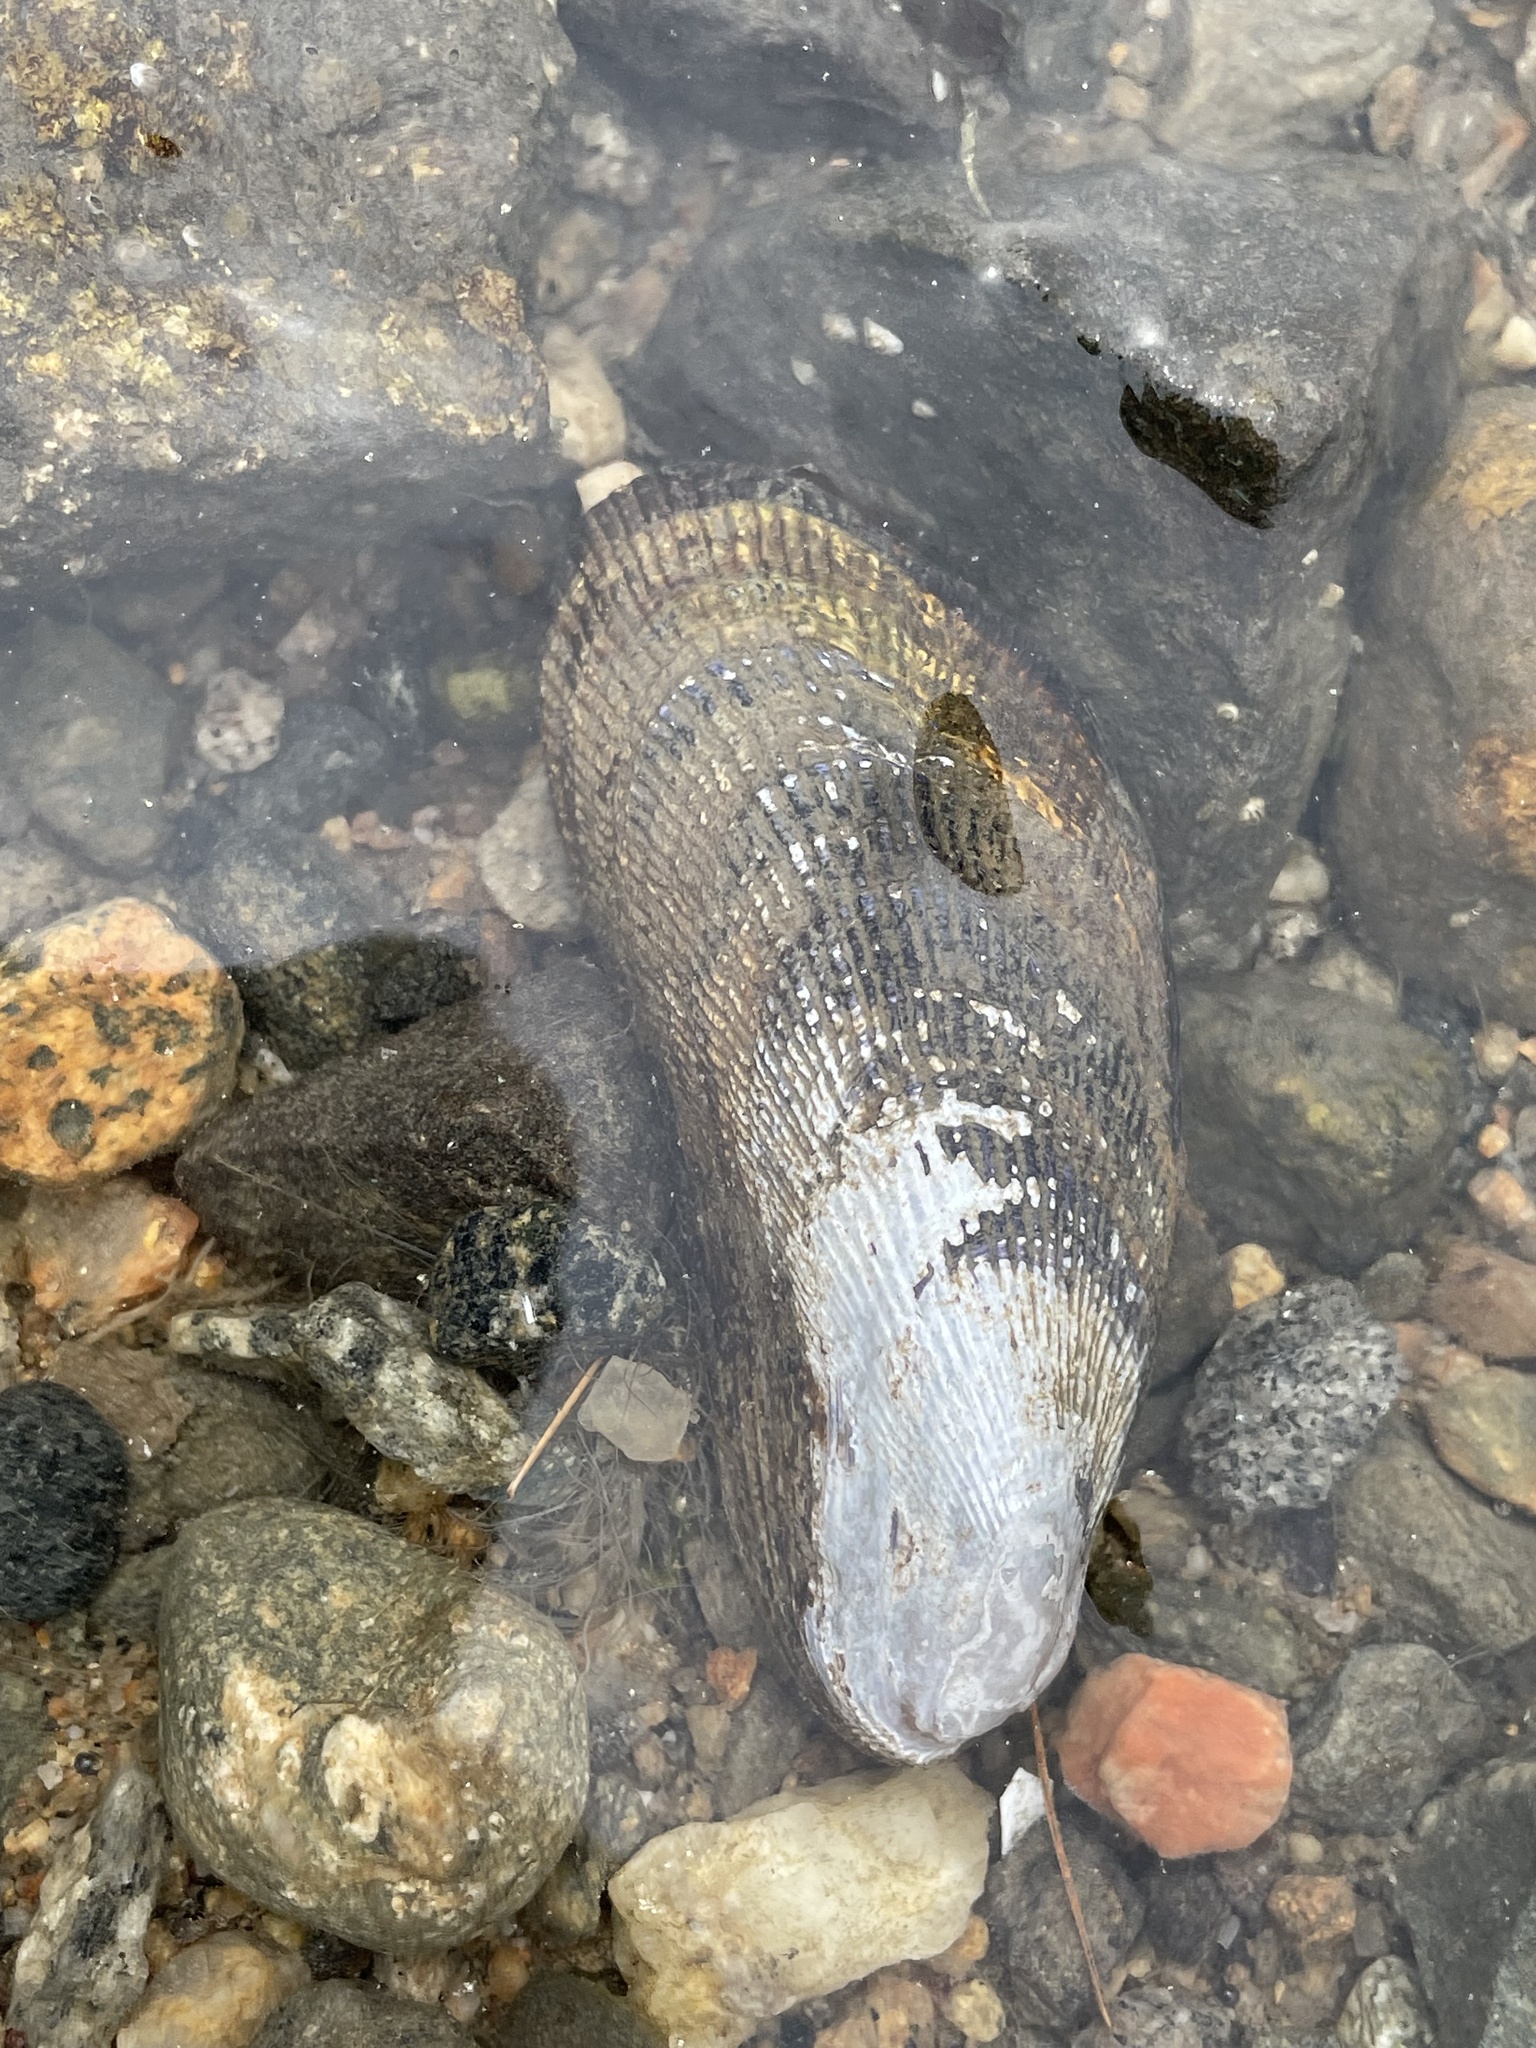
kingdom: Animalia
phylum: Mollusca
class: Bivalvia
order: Mytilida
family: Mytilidae
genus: Geukensia
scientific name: Geukensia demissa
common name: Ribbed mussel
